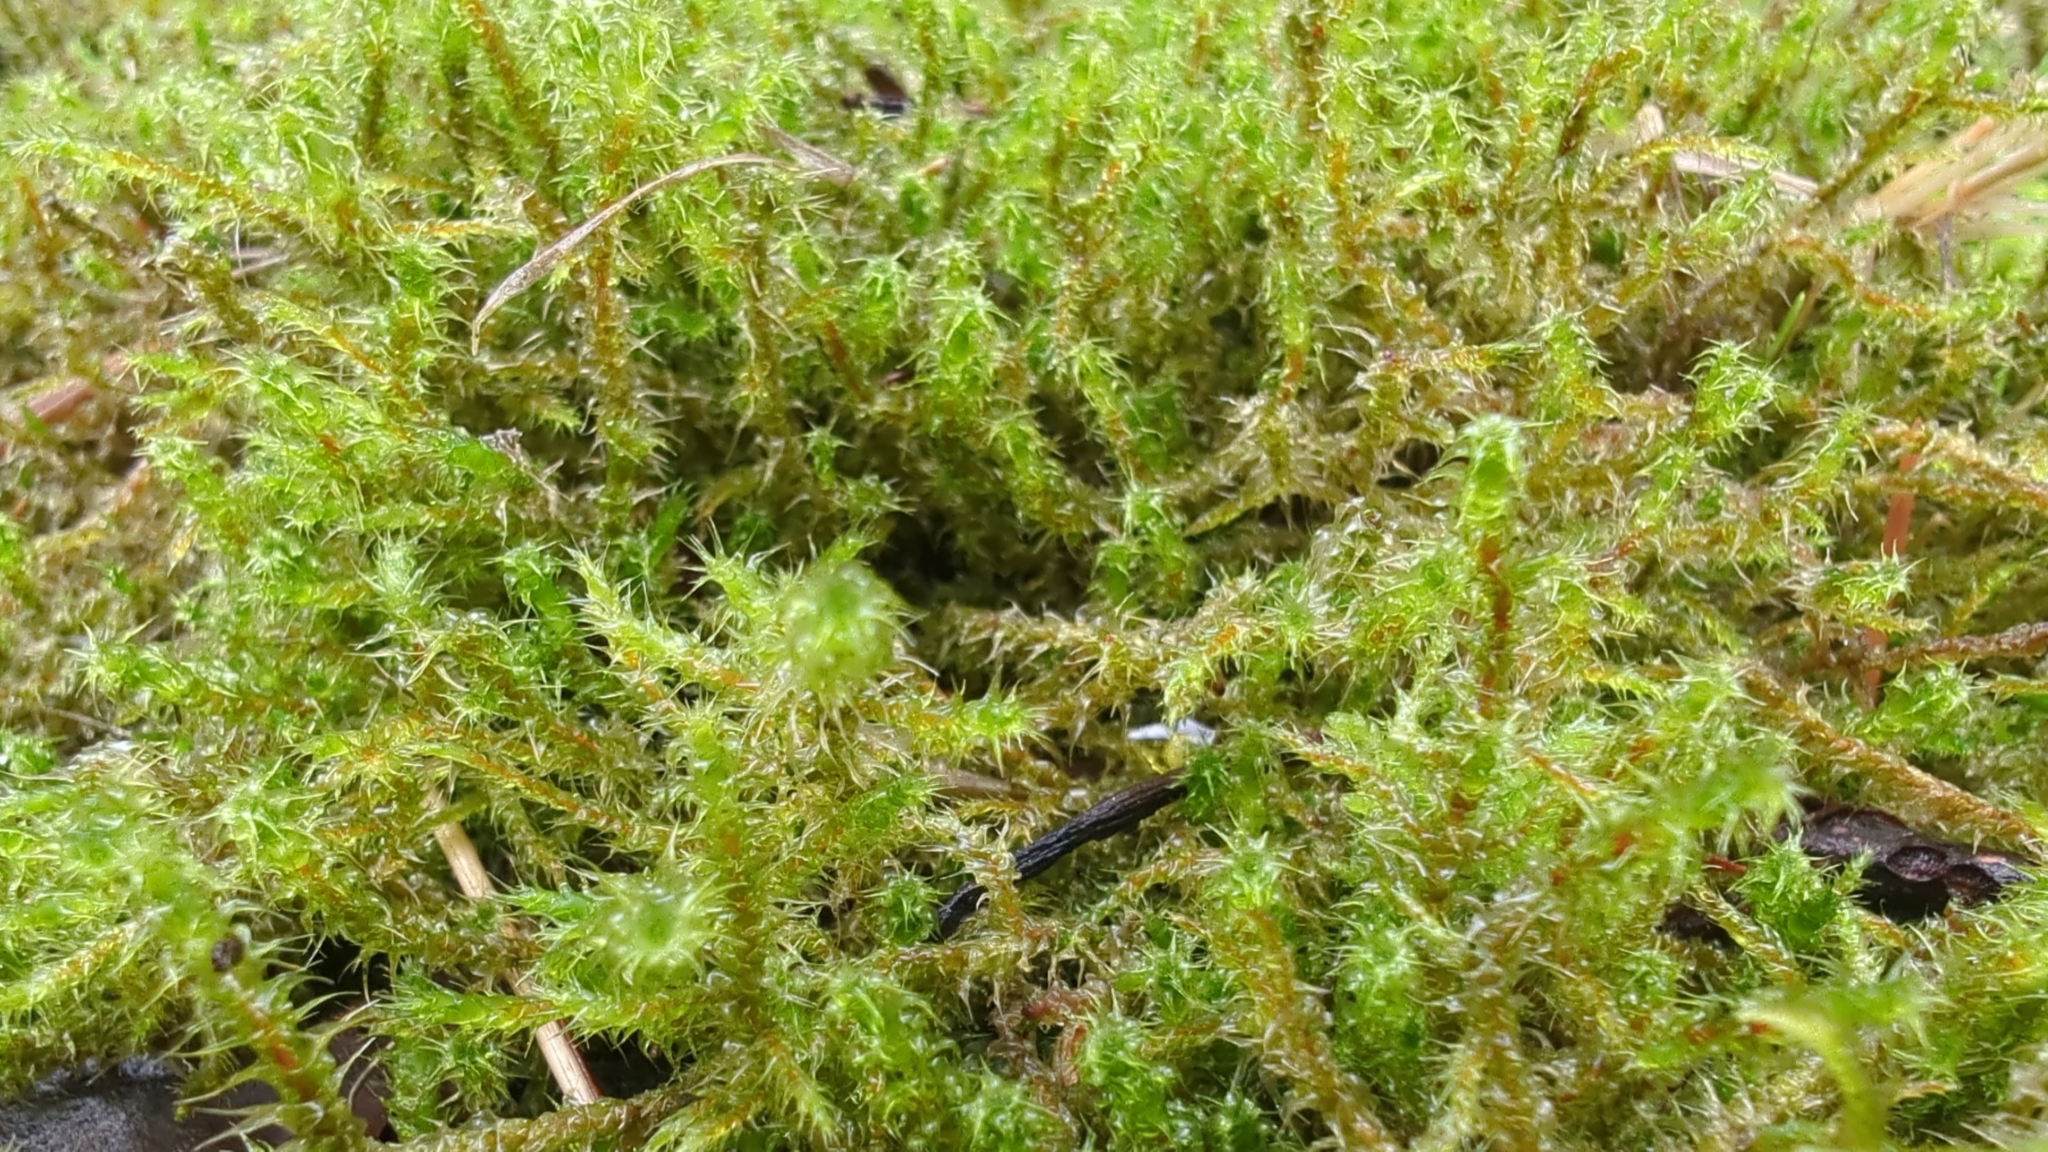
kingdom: Plantae
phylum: Bryophyta
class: Bryopsida
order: Hypnales
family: Hylocomiaceae
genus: Rhytidiadelphus
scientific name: Rhytidiadelphus squarrosus
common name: Springy turf-moss
